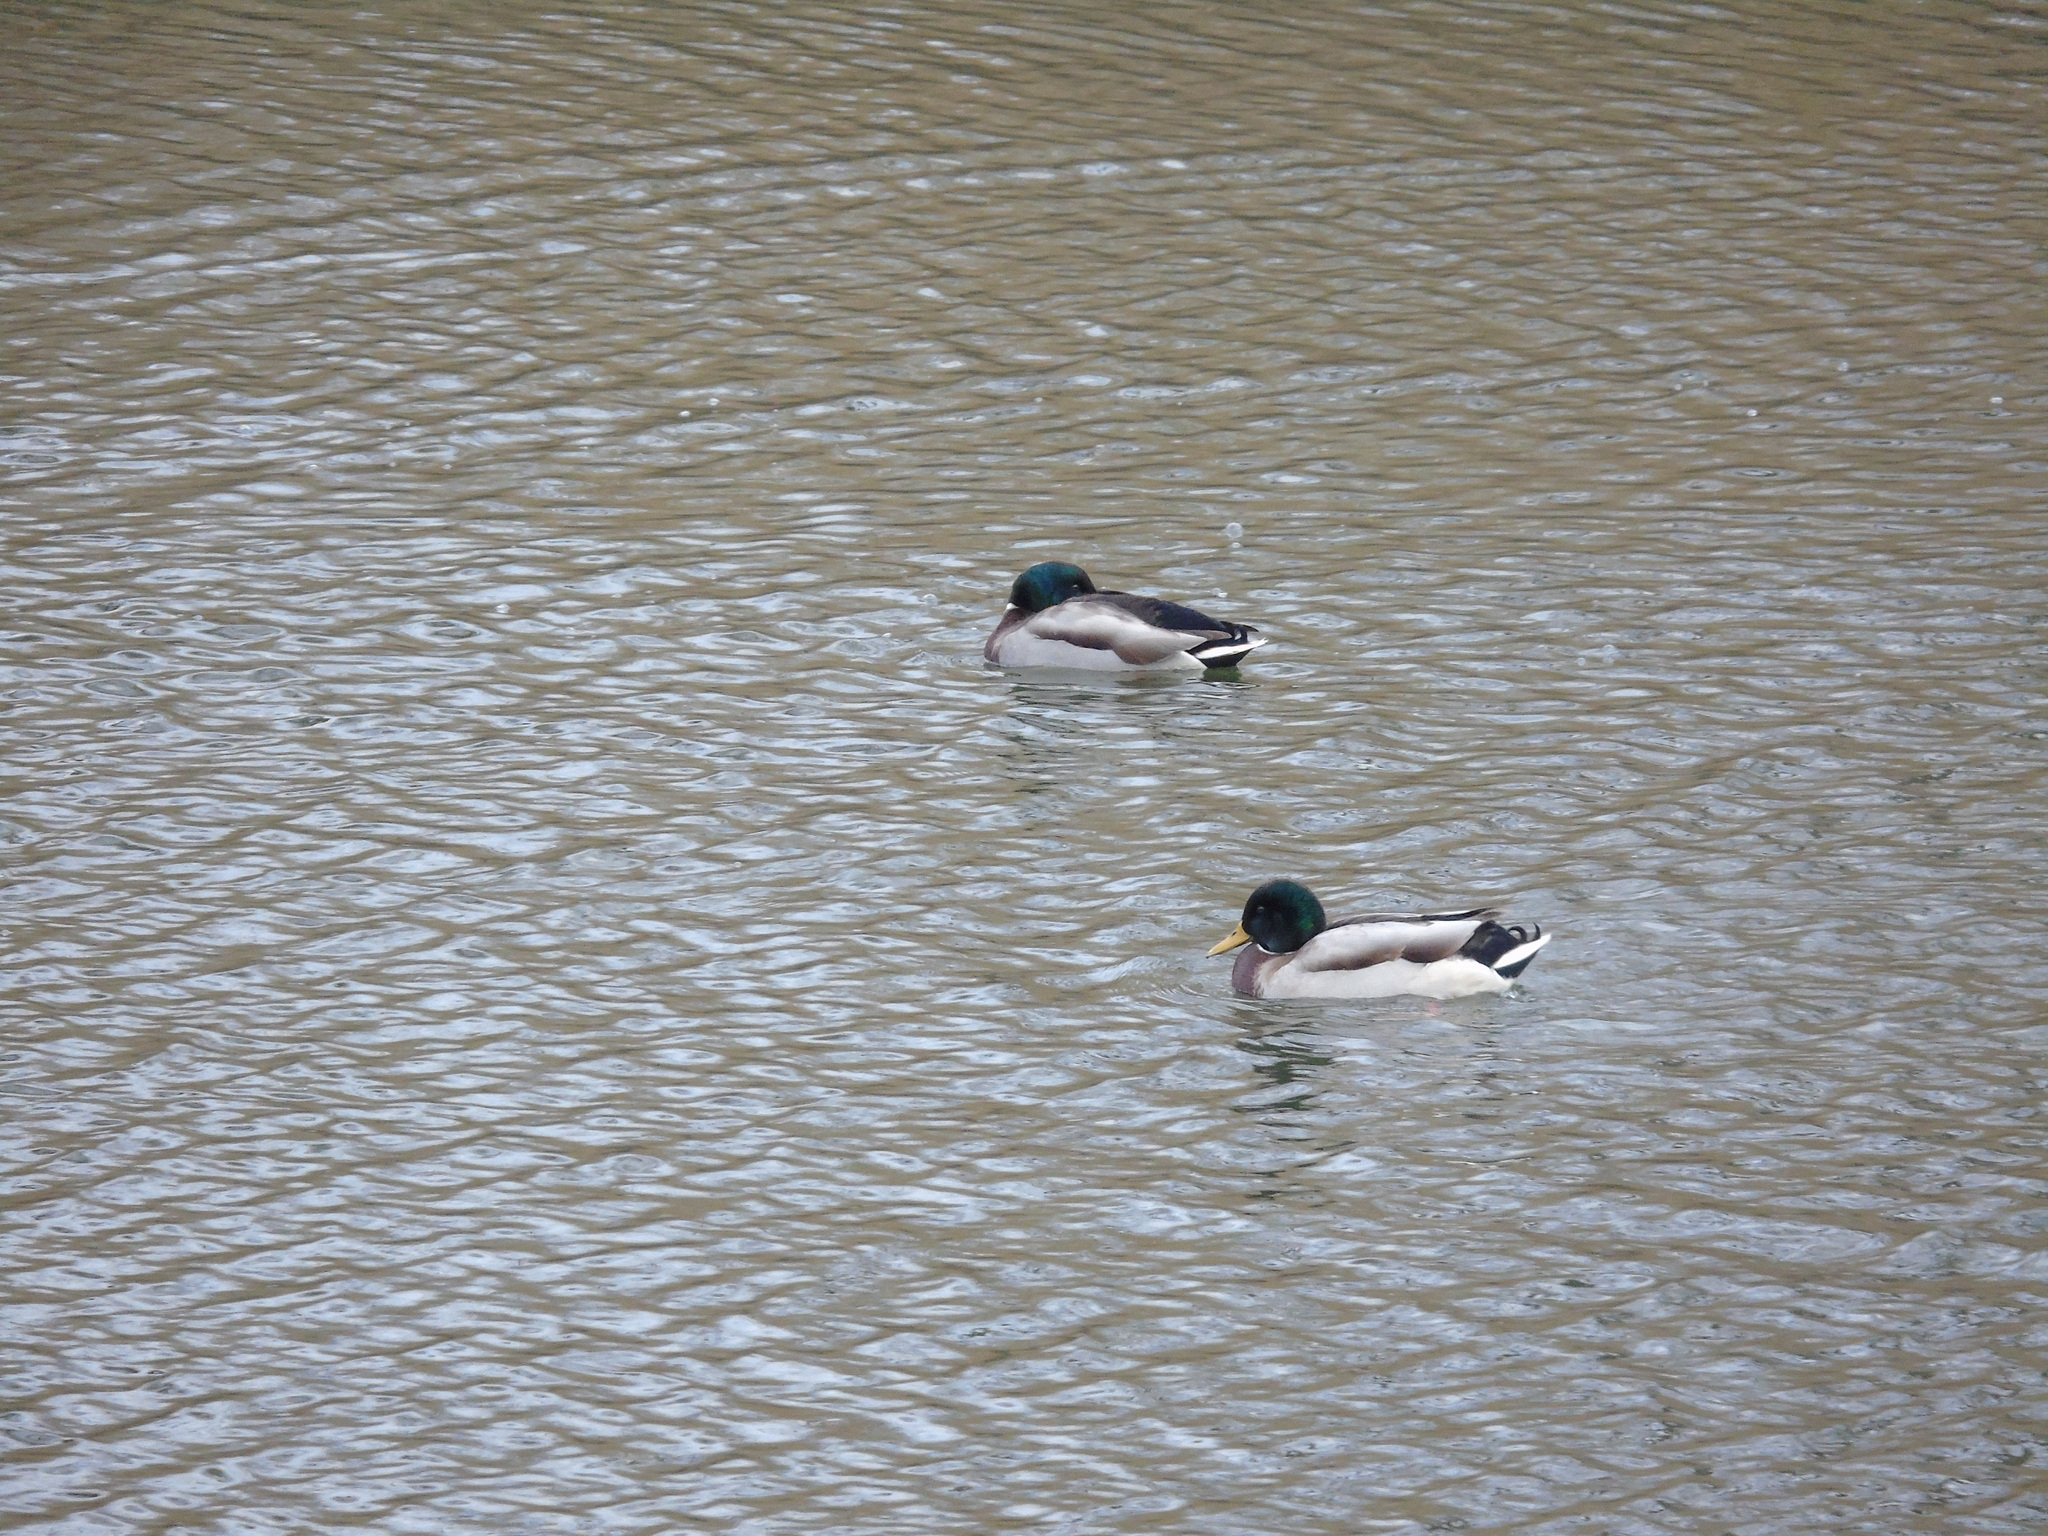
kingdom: Animalia
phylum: Chordata
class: Aves
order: Anseriformes
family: Anatidae
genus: Anas
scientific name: Anas platyrhynchos
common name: Mallard
